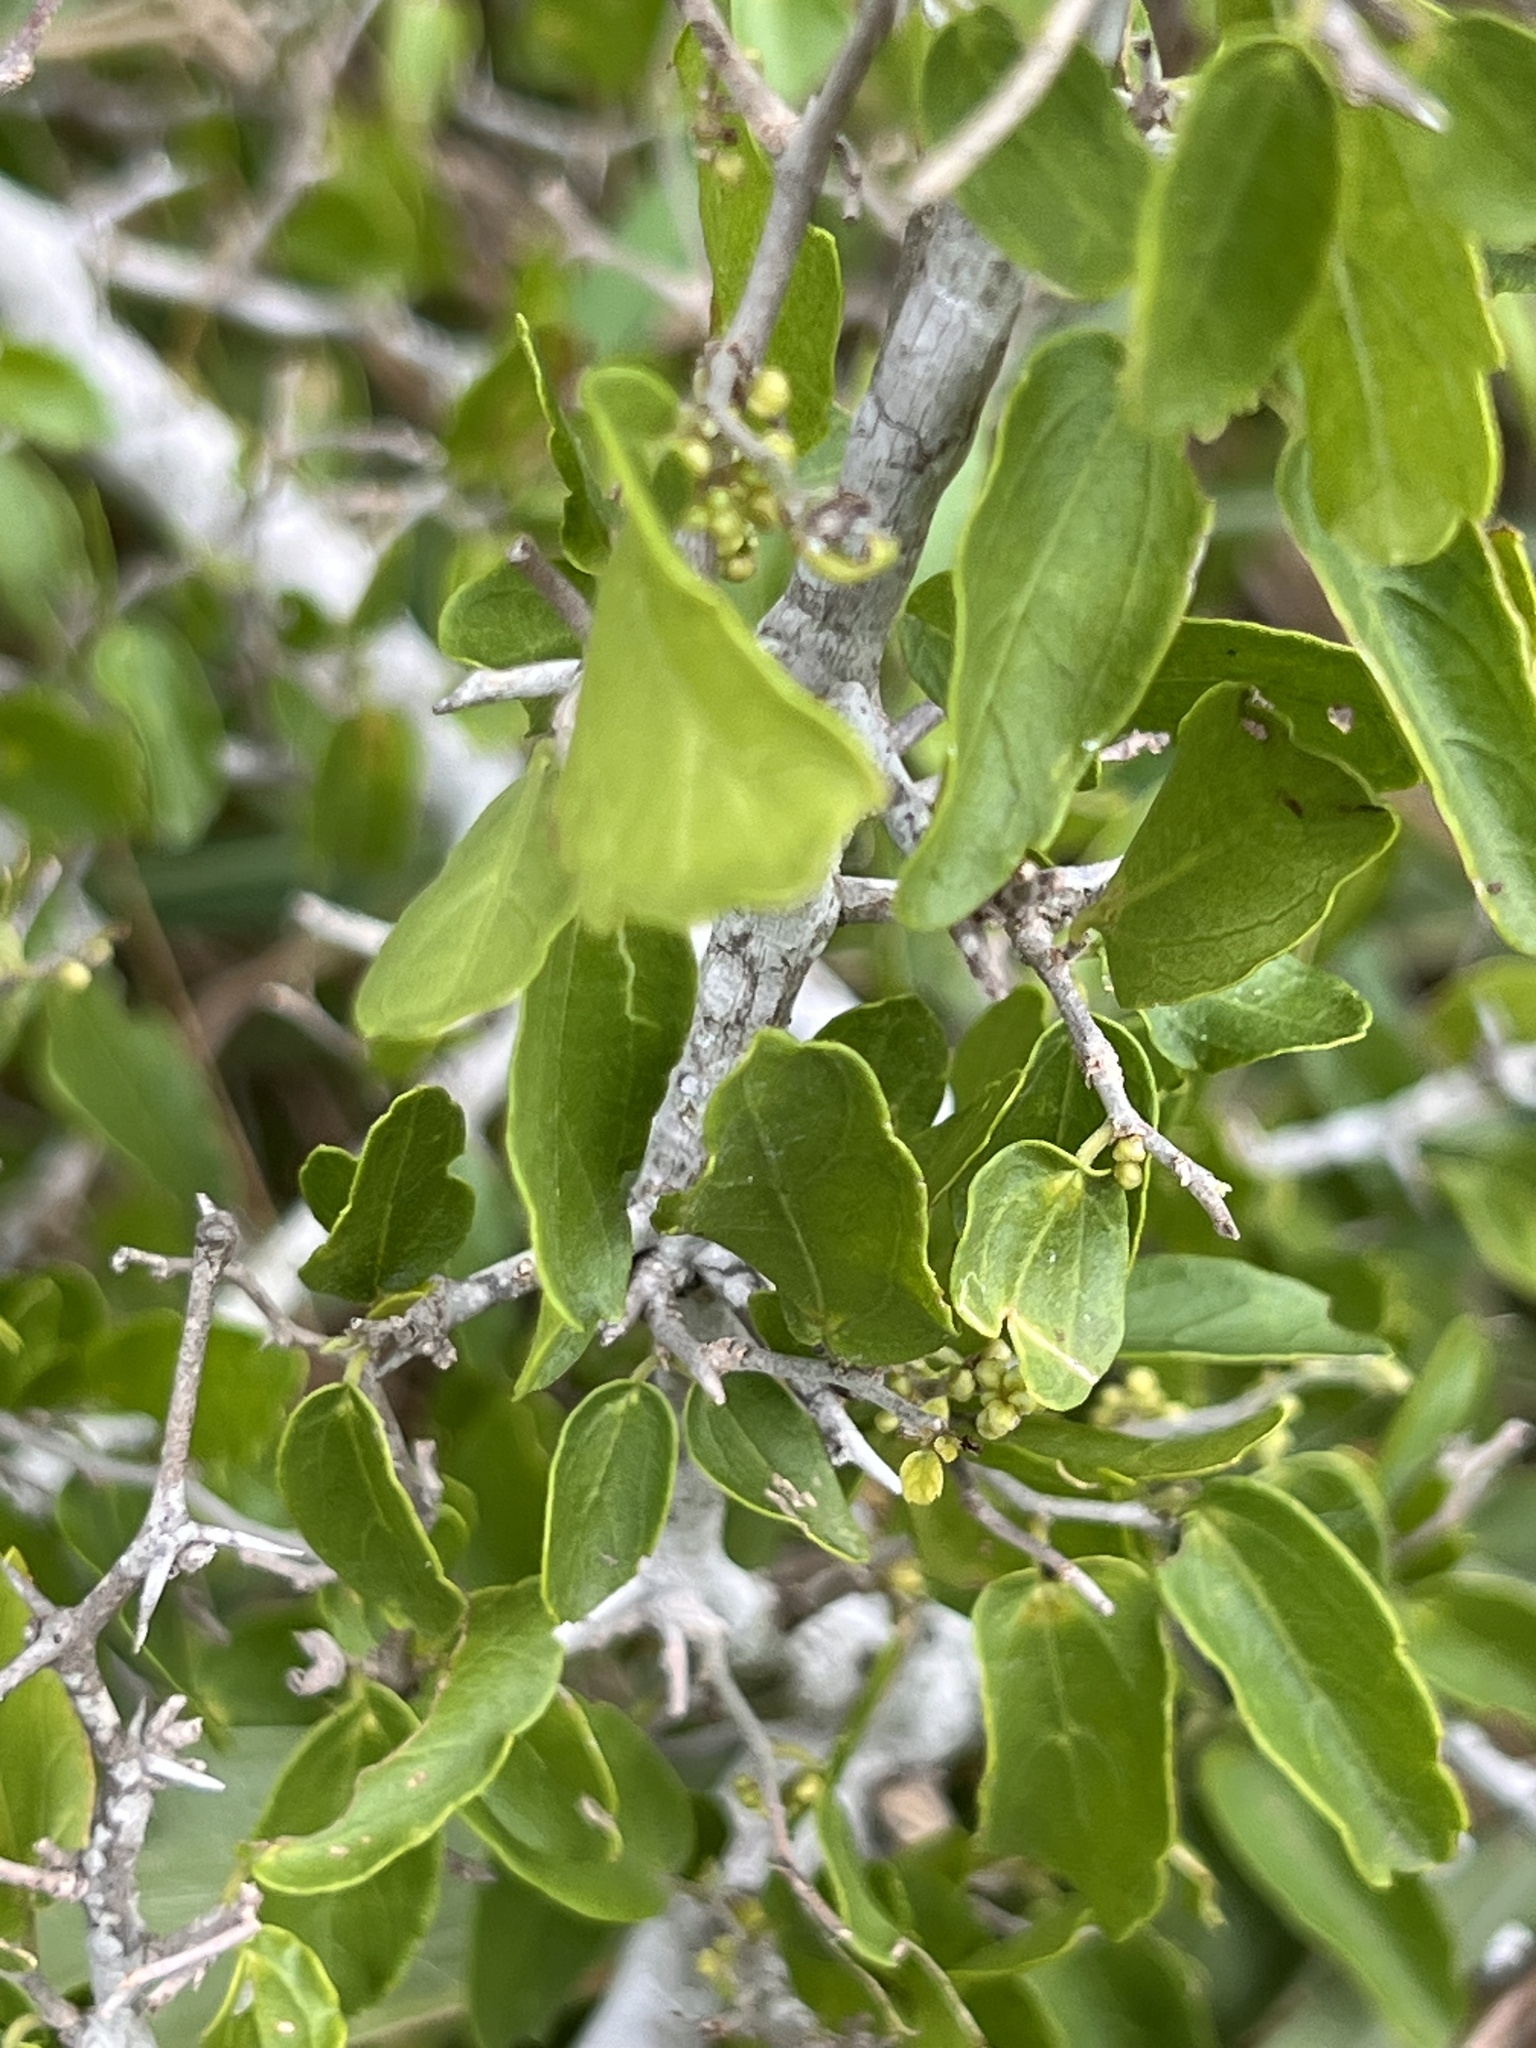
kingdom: Plantae
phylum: Tracheophyta
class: Magnoliopsida
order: Rosales
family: Cannabaceae
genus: Celtis
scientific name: Celtis pallida
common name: Desert hackberry
